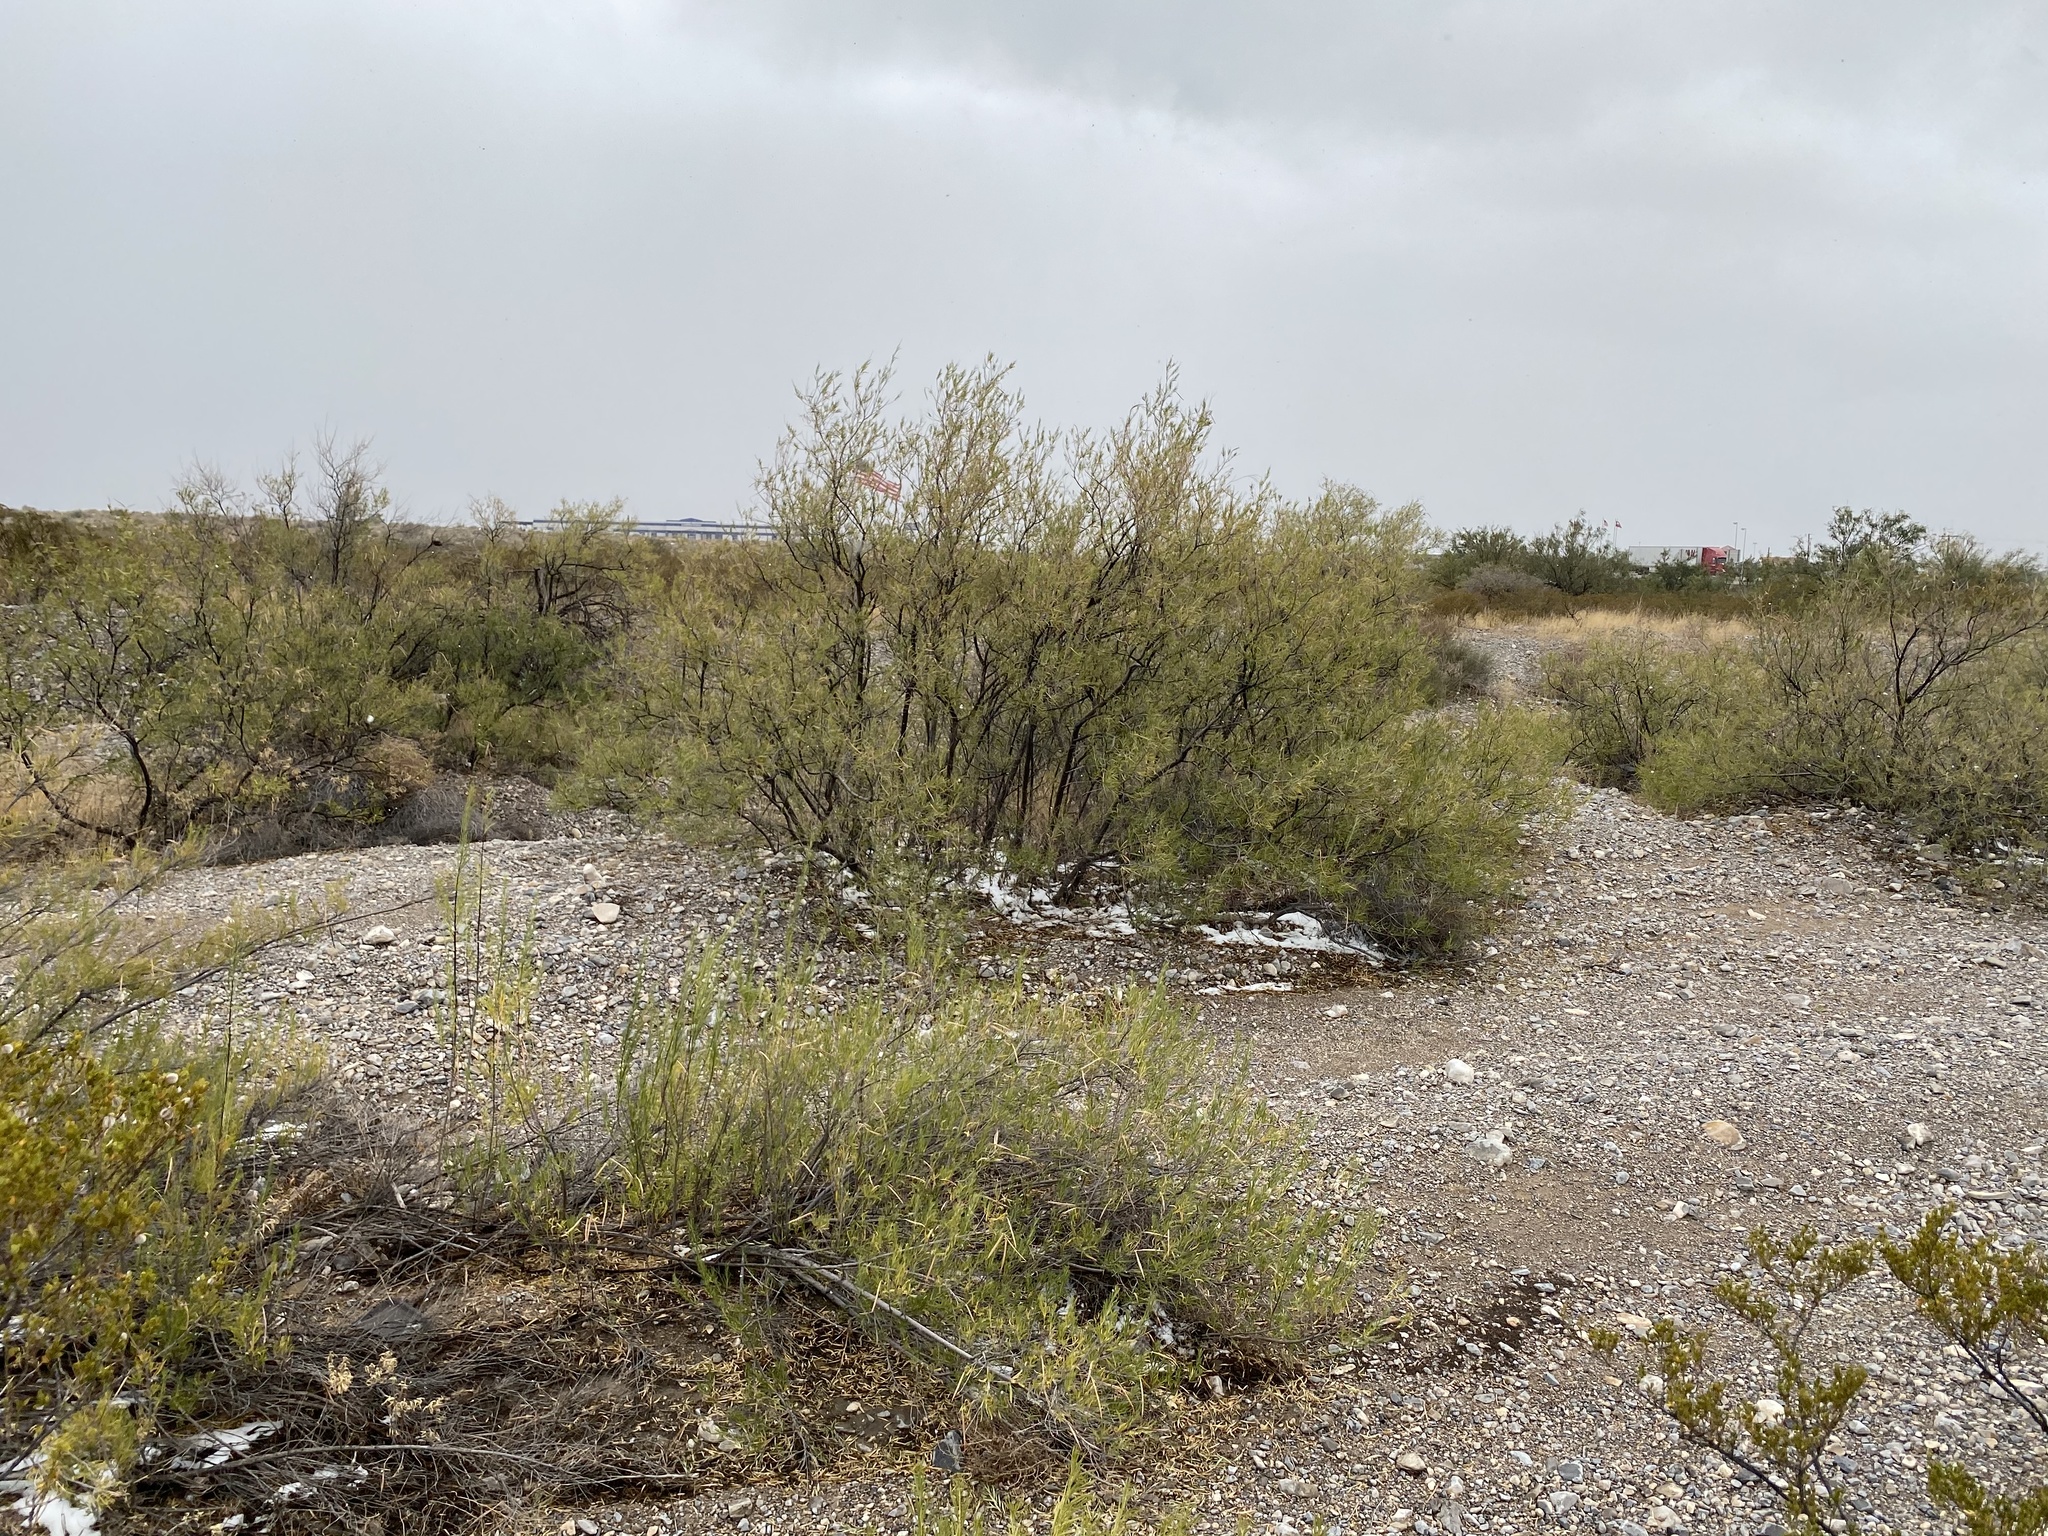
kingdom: Plantae
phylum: Tracheophyta
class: Magnoliopsida
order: Lamiales
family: Bignoniaceae
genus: Chilopsis
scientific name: Chilopsis linearis
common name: Desert-willow
